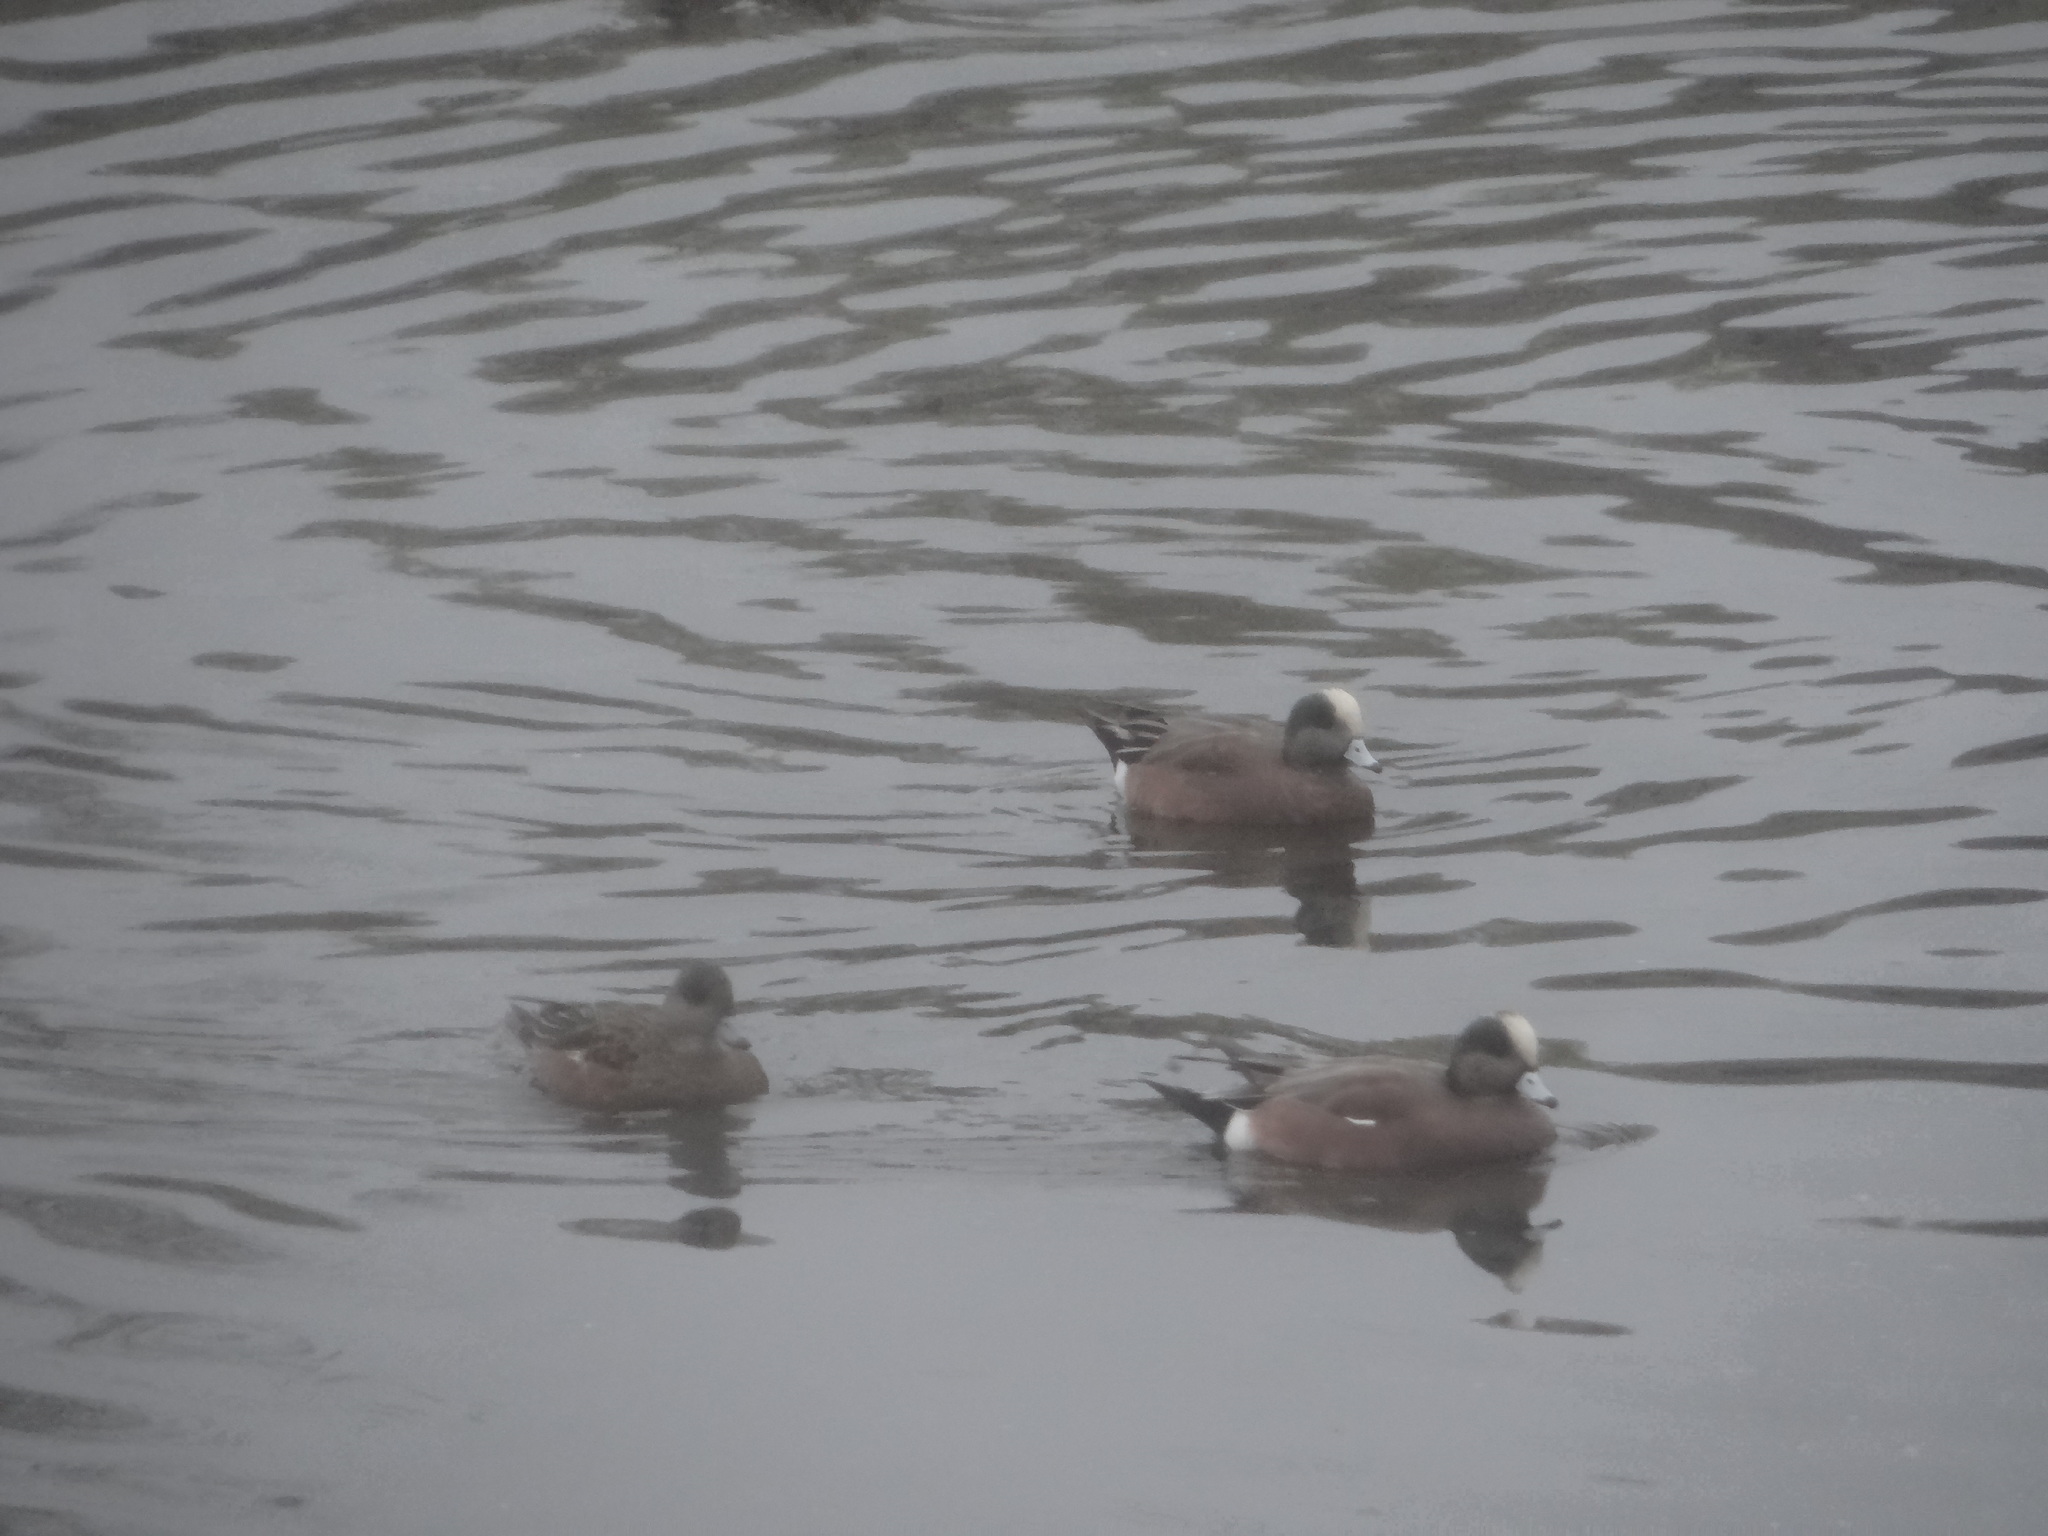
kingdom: Animalia
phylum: Chordata
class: Aves
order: Anseriformes
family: Anatidae
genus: Mareca
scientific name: Mareca americana
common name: American wigeon
